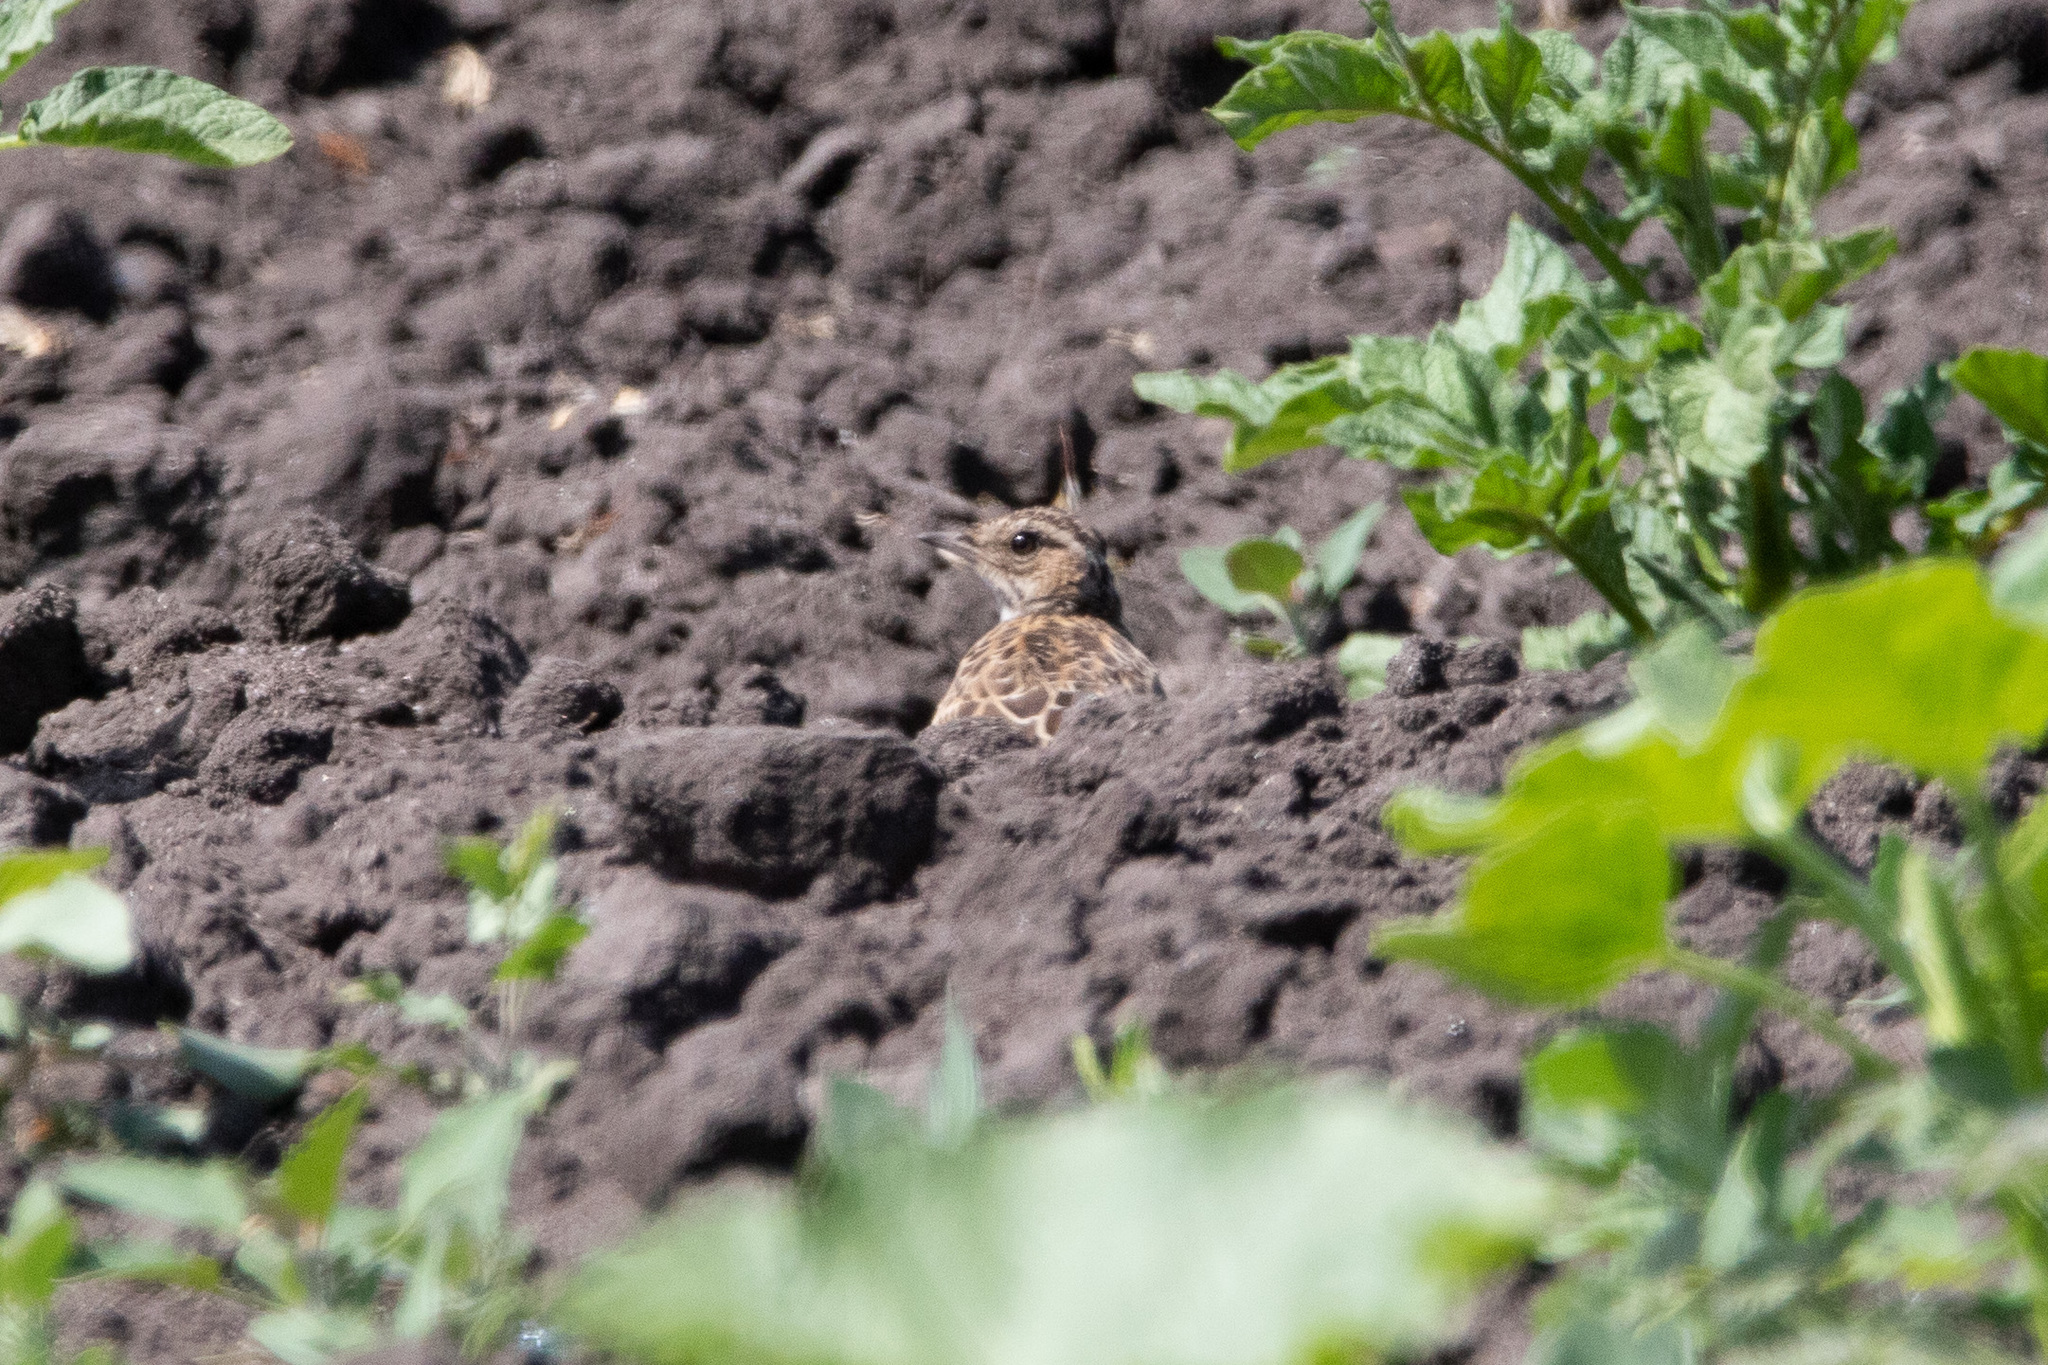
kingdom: Animalia
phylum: Chordata
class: Aves
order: Passeriformes
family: Alaudidae
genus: Lullula
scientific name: Lullula arborea
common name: Woodlark
